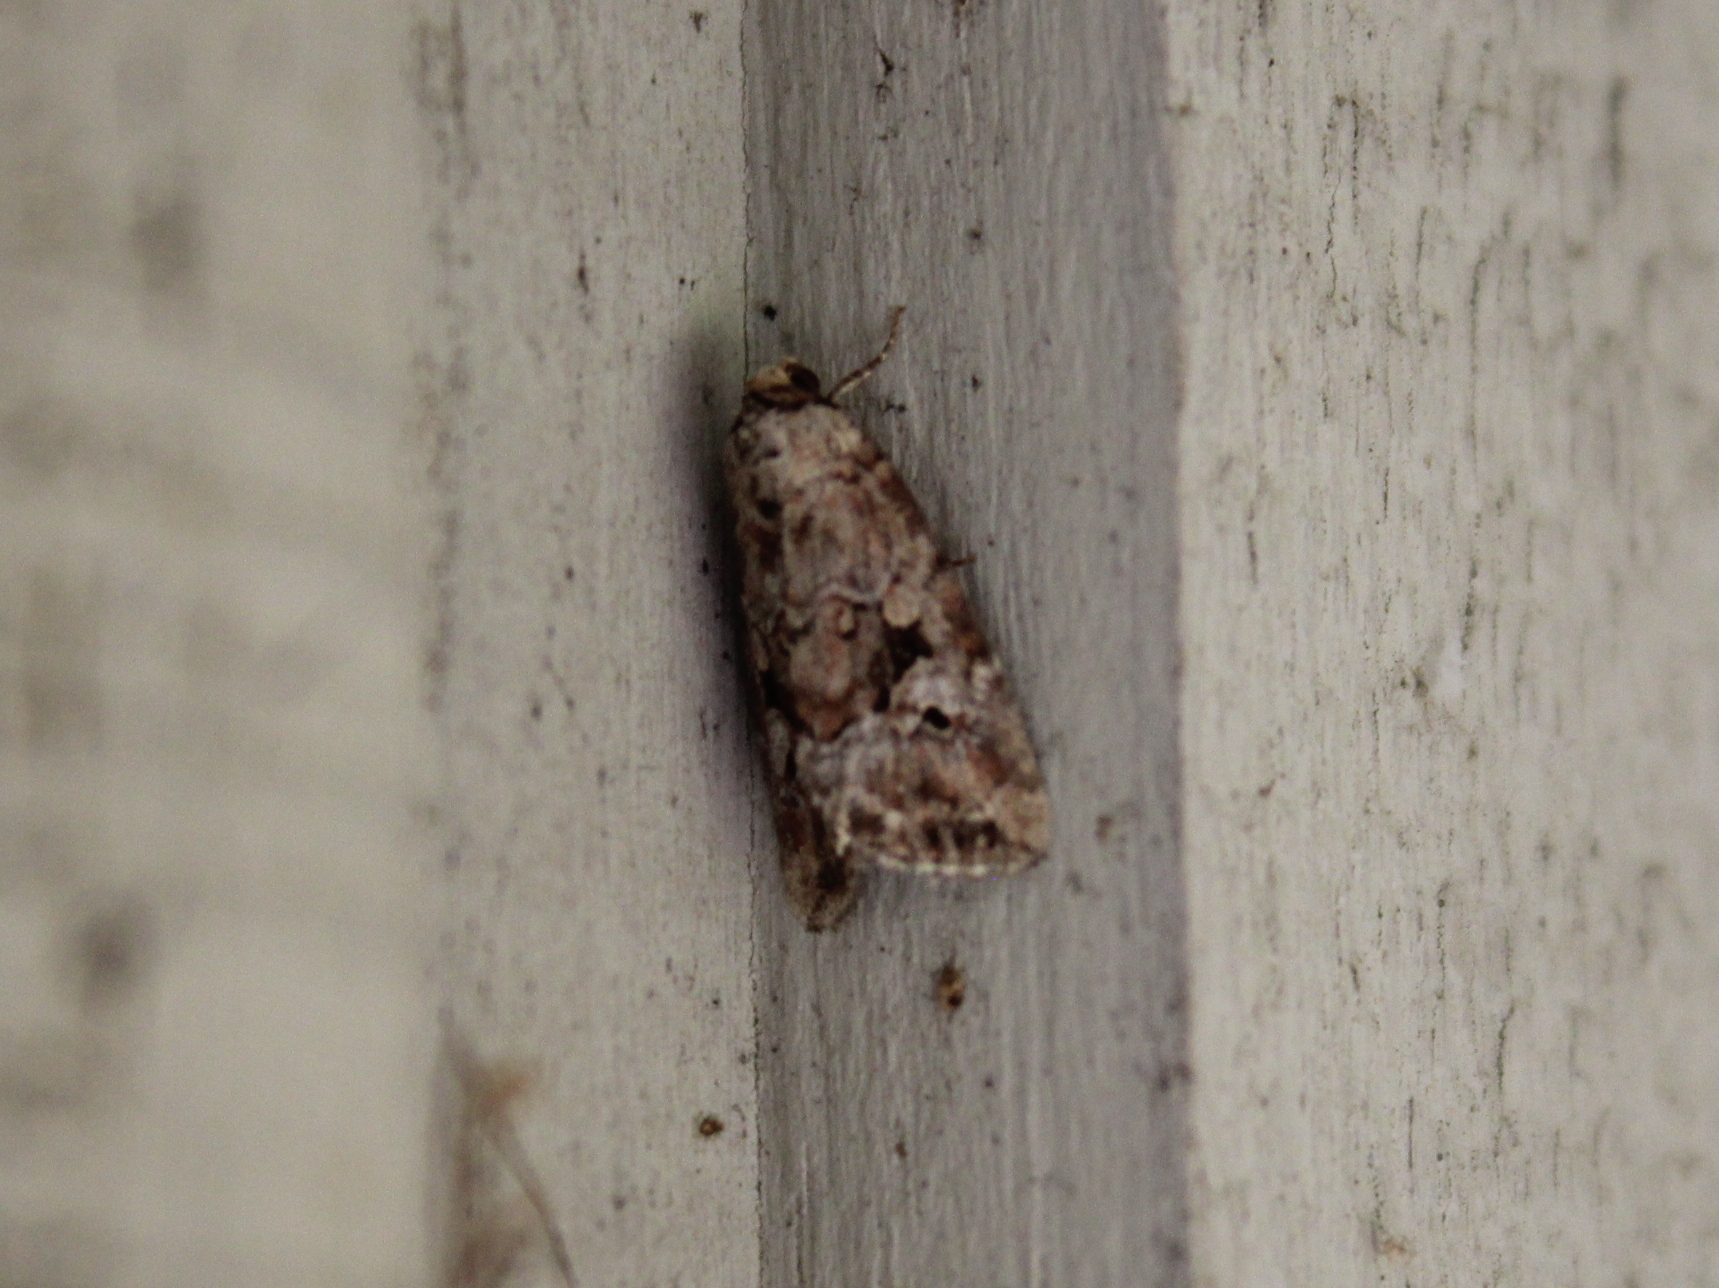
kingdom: Animalia
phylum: Arthropoda
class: Insecta
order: Lepidoptera
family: Noctuidae
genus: Elaphria
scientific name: Elaphria alapallida
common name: Pale-winged midget
